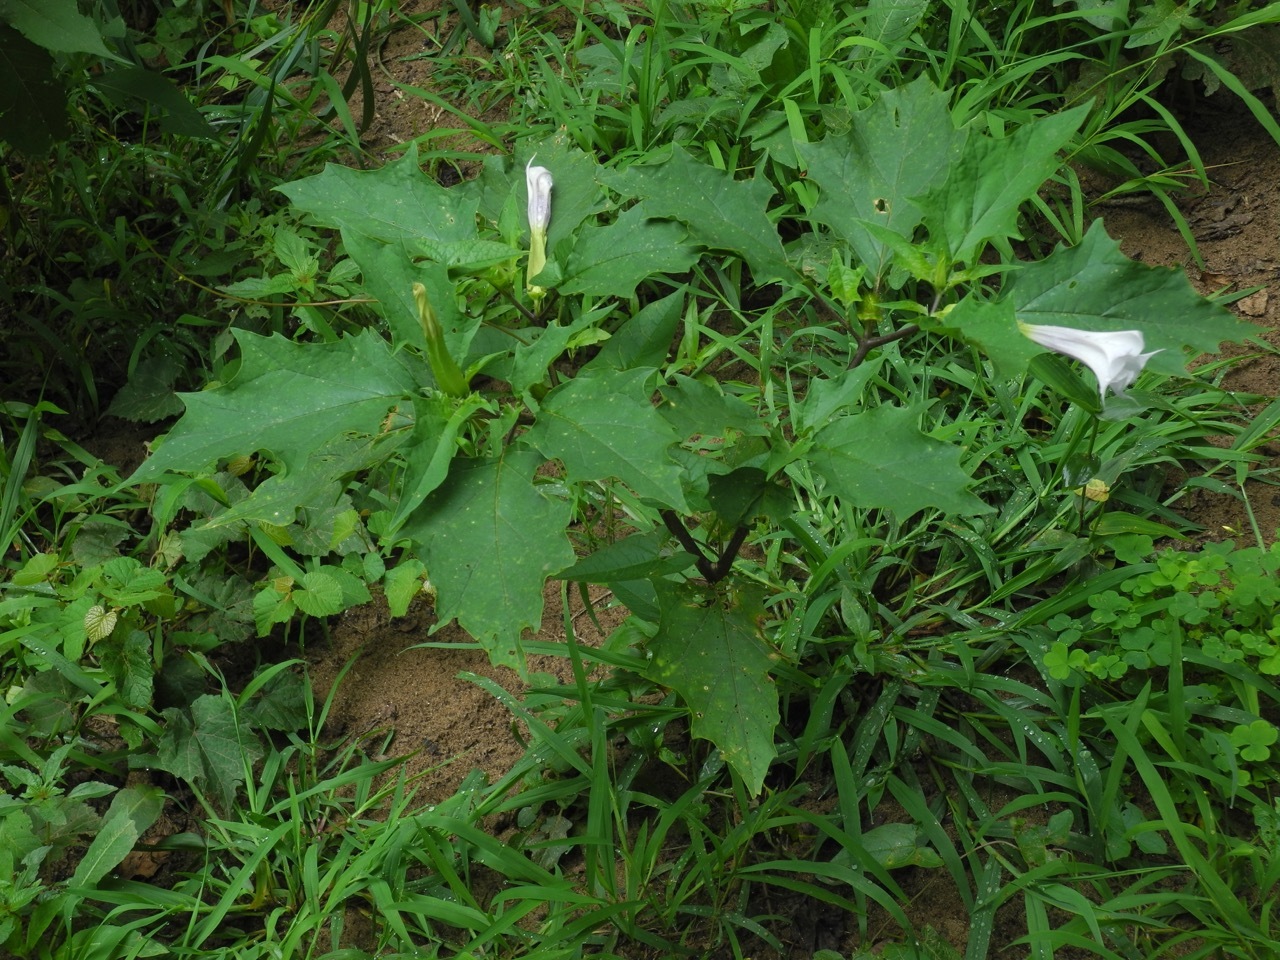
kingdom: Plantae
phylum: Tracheophyta
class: Magnoliopsida
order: Solanales
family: Solanaceae
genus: Datura
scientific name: Datura stramonium
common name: Thorn-apple
